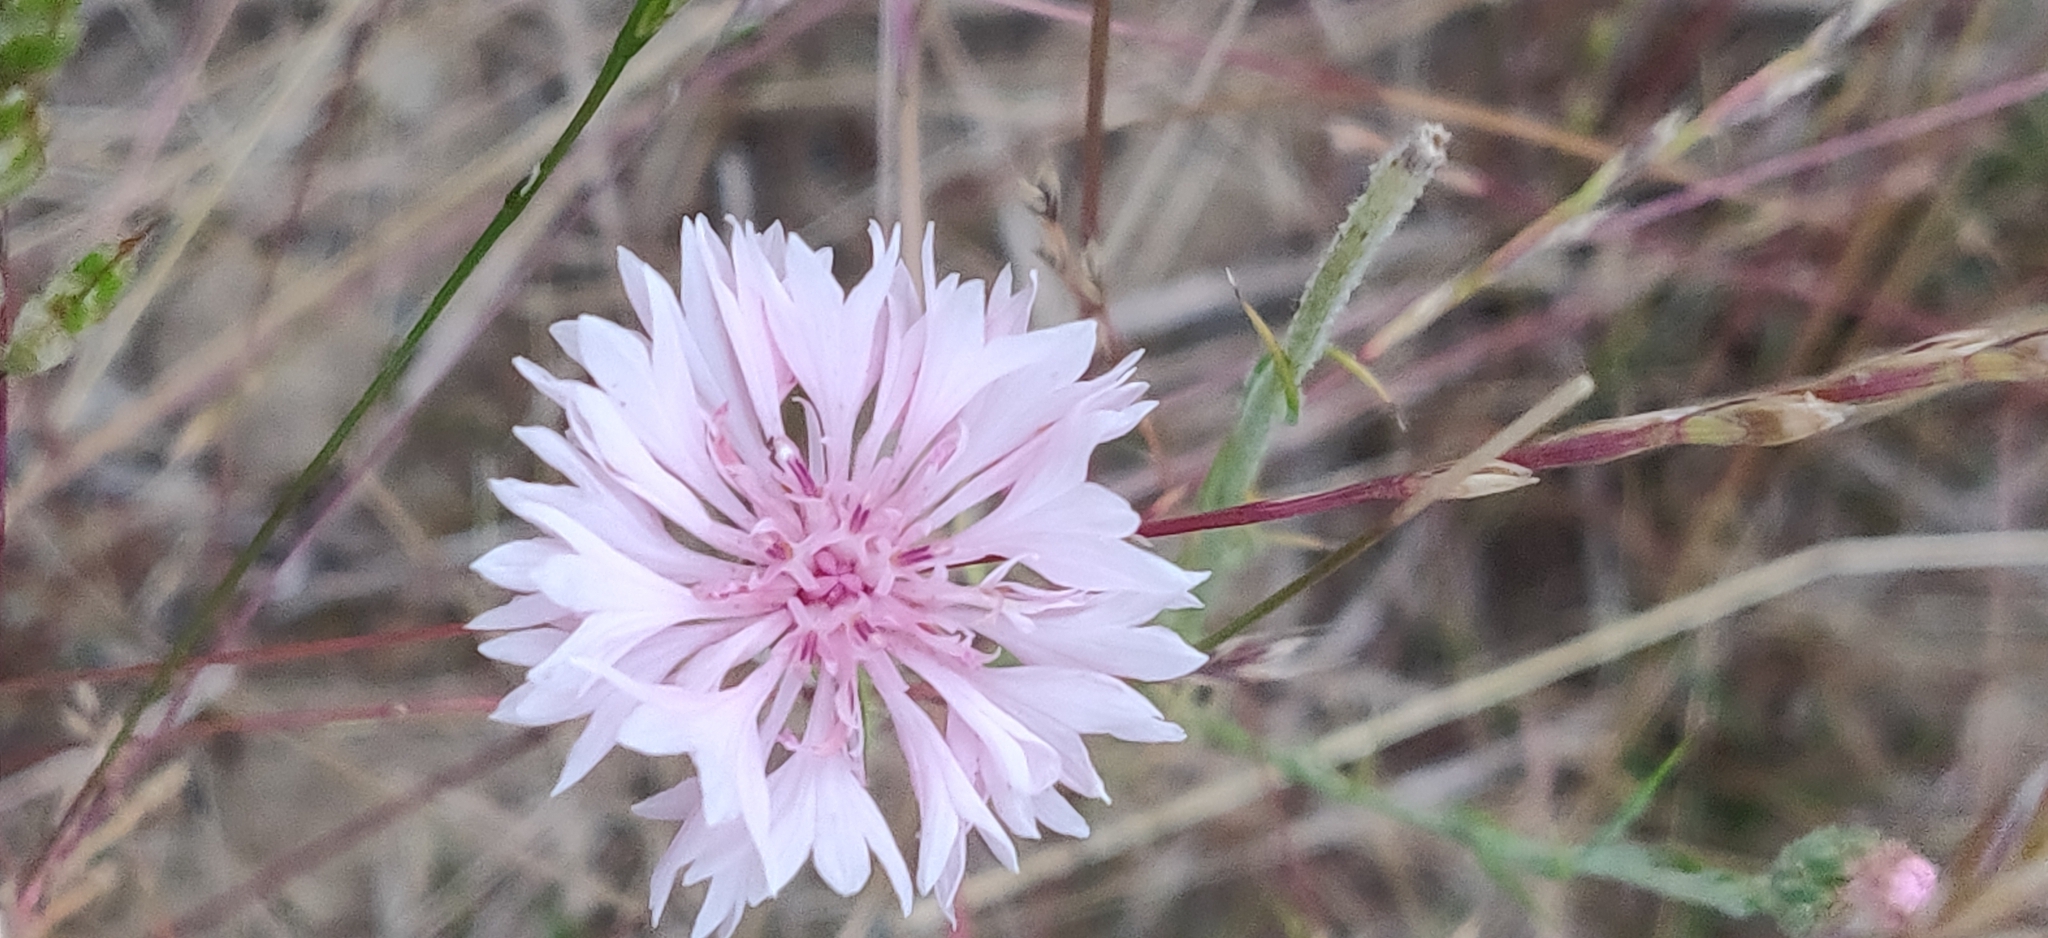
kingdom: Plantae
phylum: Tracheophyta
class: Magnoliopsida
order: Asterales
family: Asteraceae
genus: Centaurea
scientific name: Centaurea cyanus
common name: Cornflower
